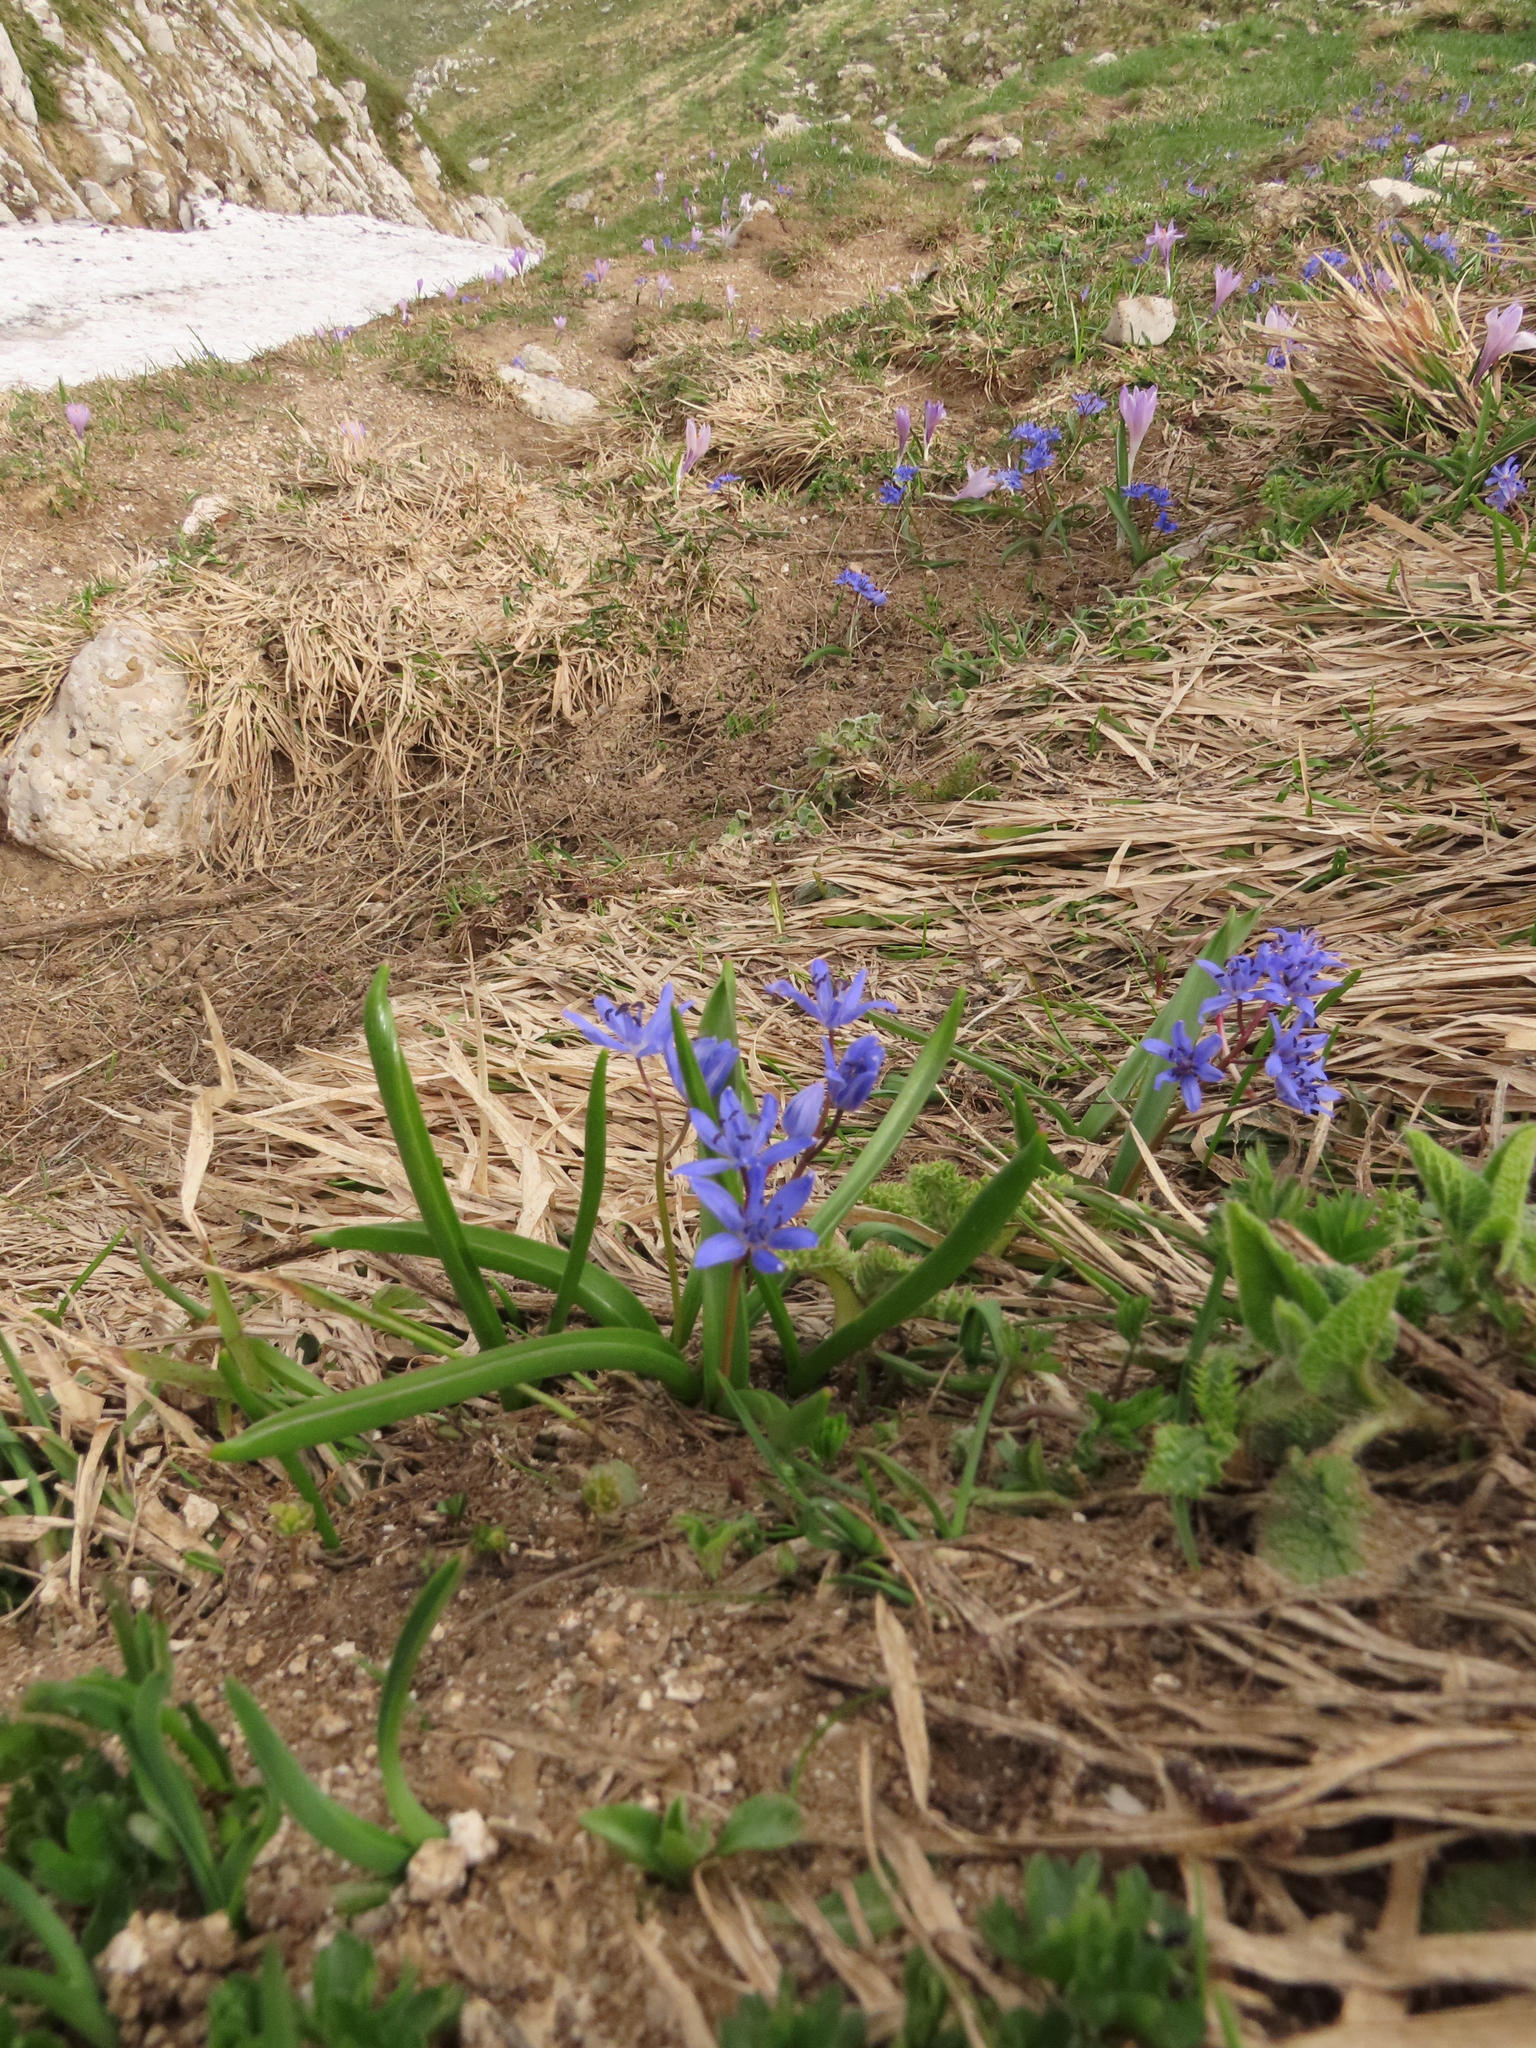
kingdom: Plantae
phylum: Tracheophyta
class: Liliopsida
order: Asparagales
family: Asparagaceae
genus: Scilla
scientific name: Scilla bifolia
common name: Alpine squill
